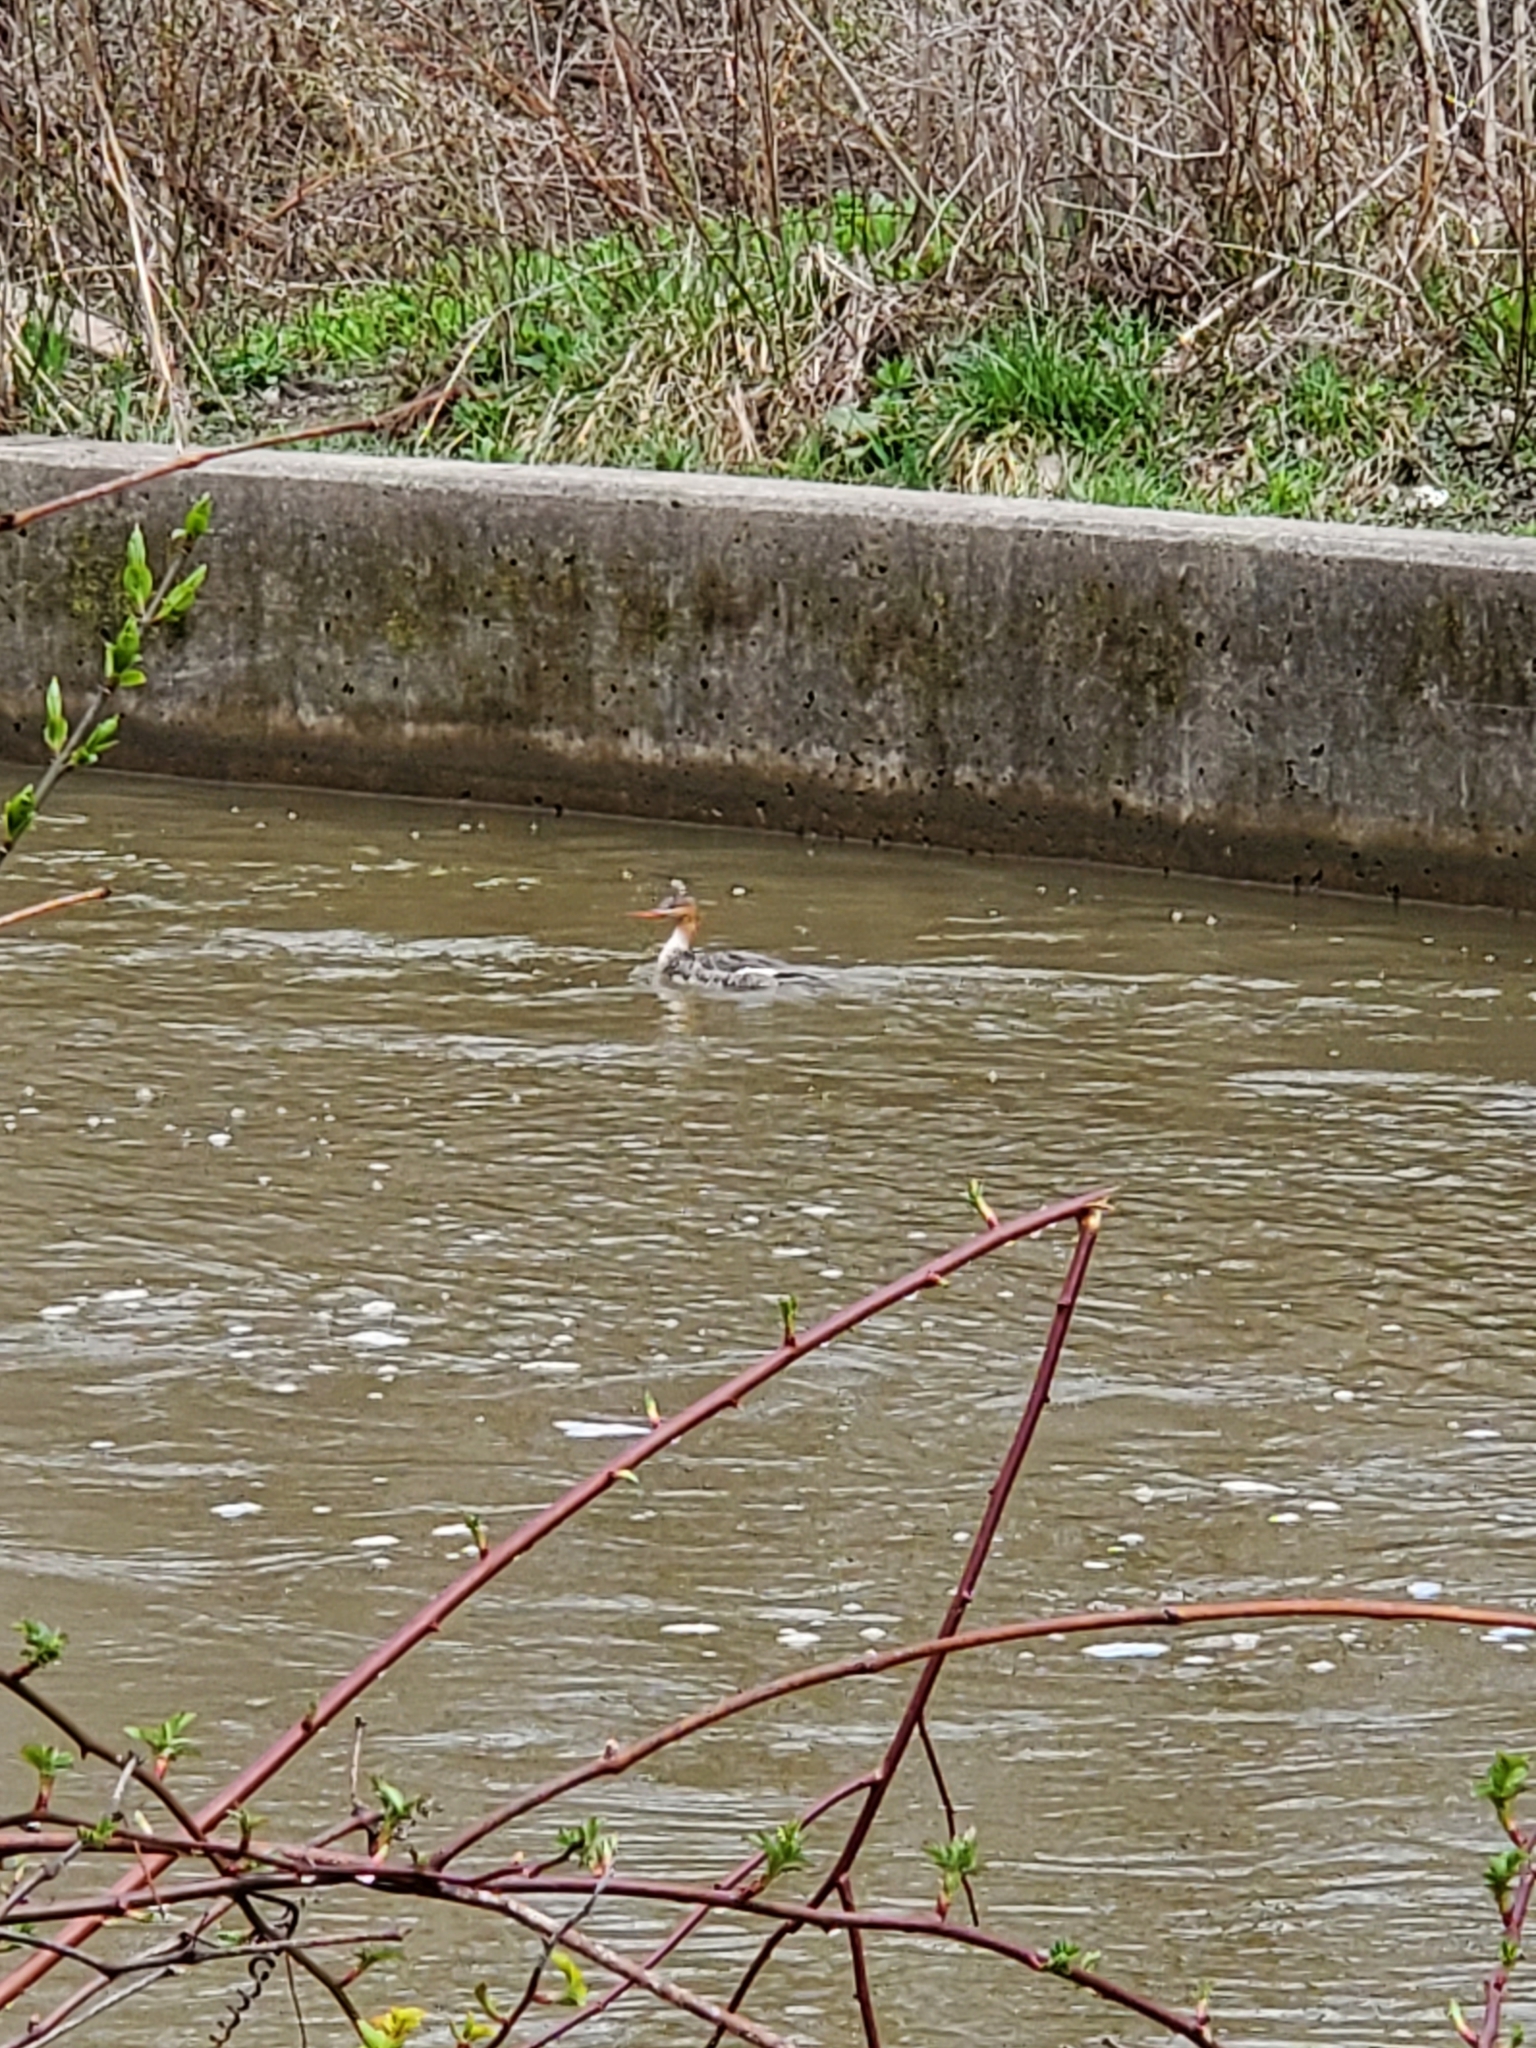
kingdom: Animalia
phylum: Chordata
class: Aves
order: Anseriformes
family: Anatidae
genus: Mergus
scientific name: Mergus serrator
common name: Red-breasted merganser
